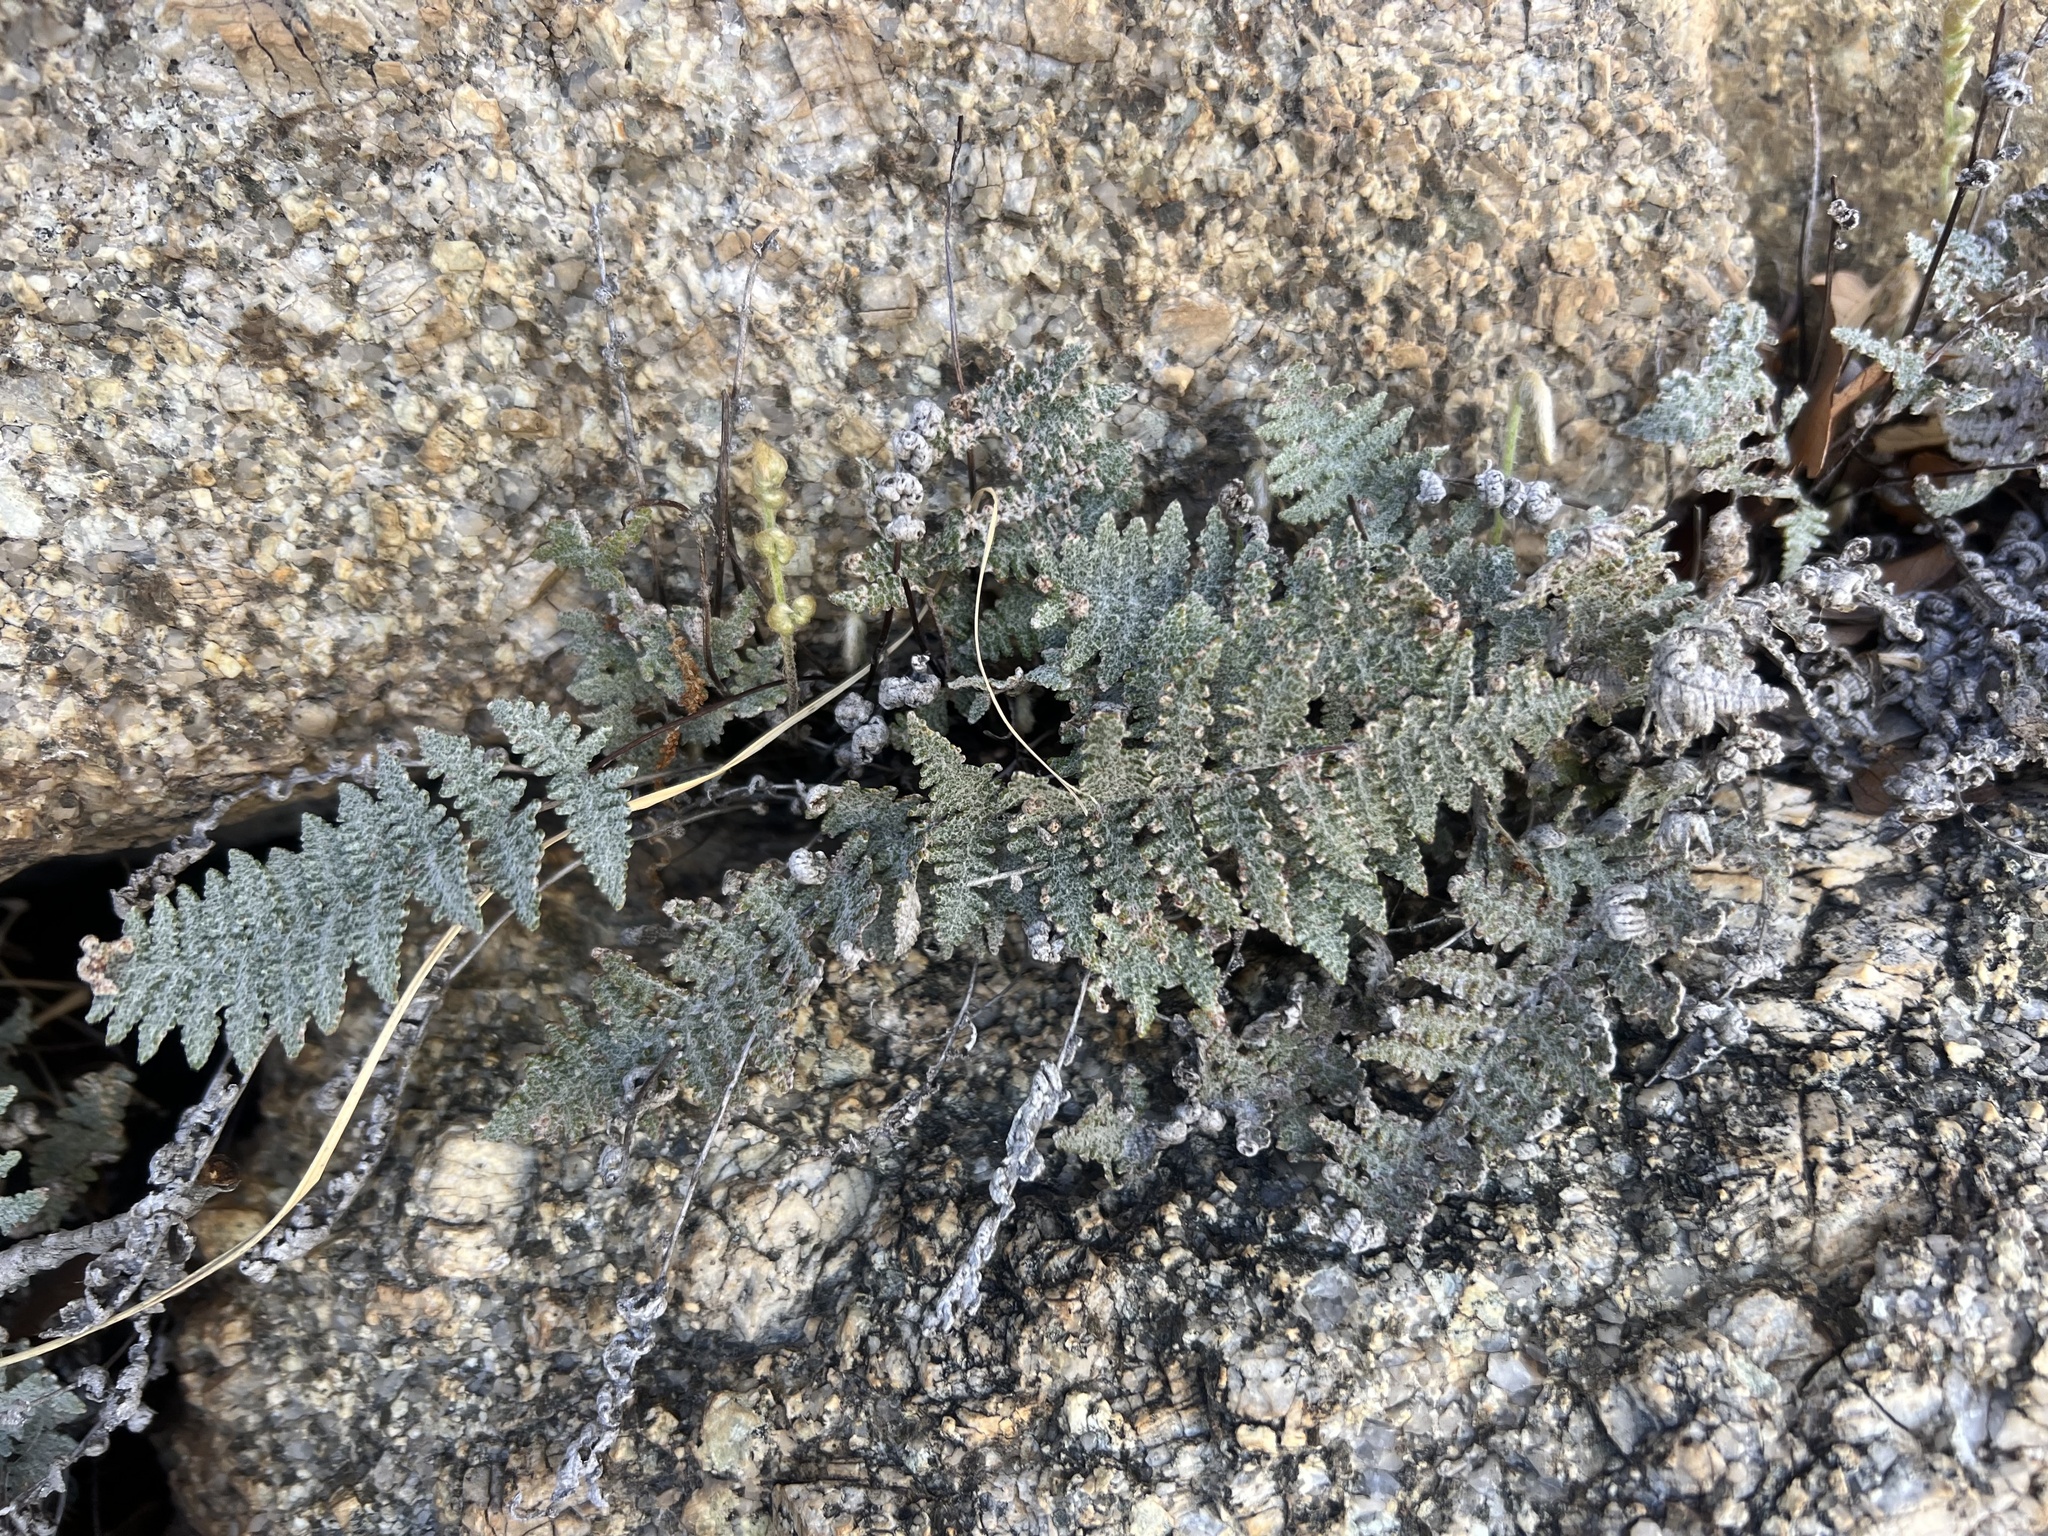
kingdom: Plantae
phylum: Tracheophyta
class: Polypodiopsida
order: Polypodiales
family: Pteridaceae
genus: Myriopteris
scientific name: Myriopteris lindheimeri
